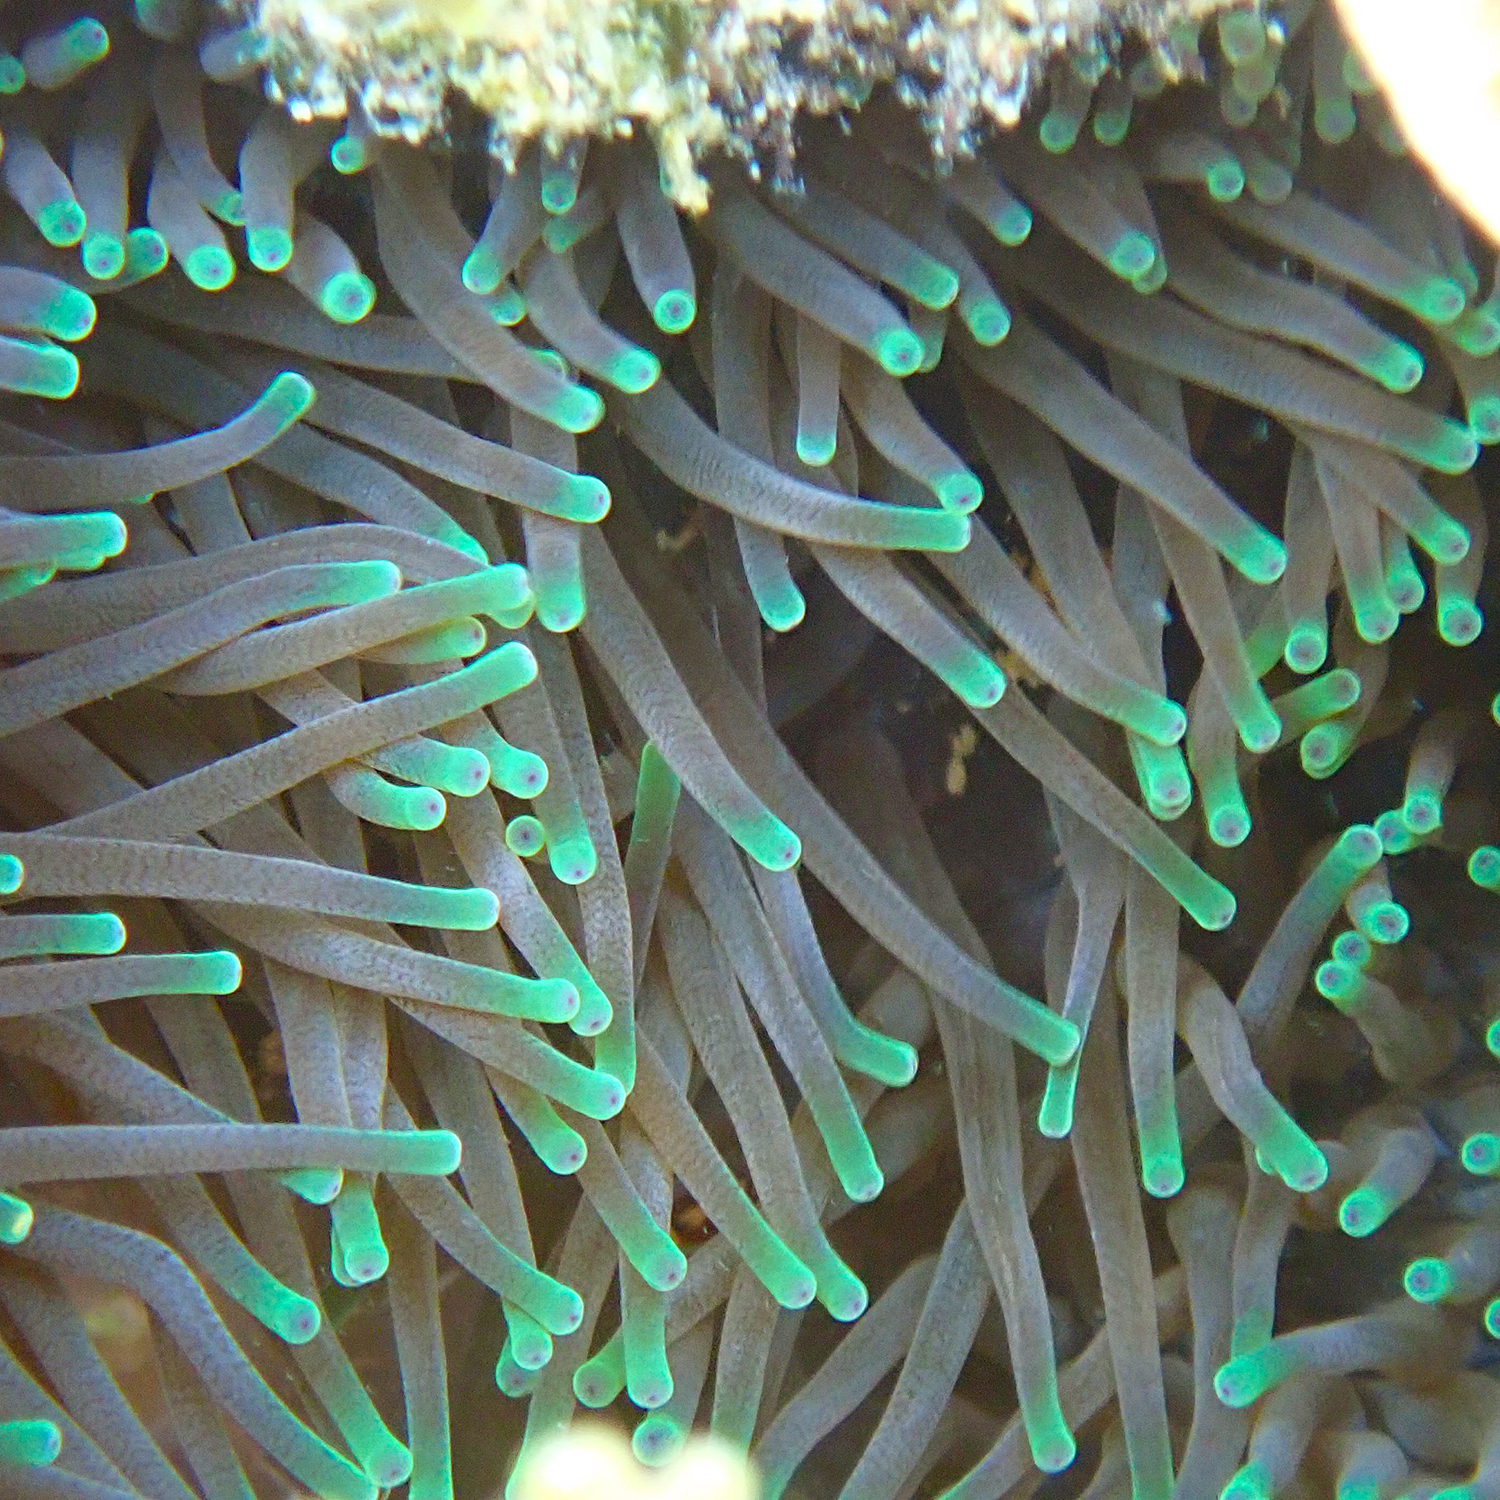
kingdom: Animalia
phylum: Cnidaria
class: Anthozoa
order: Actiniaria
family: Actiniidae
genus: Entacmaea
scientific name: Entacmaea quadricolor
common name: Bulb tentacle sea anemone
